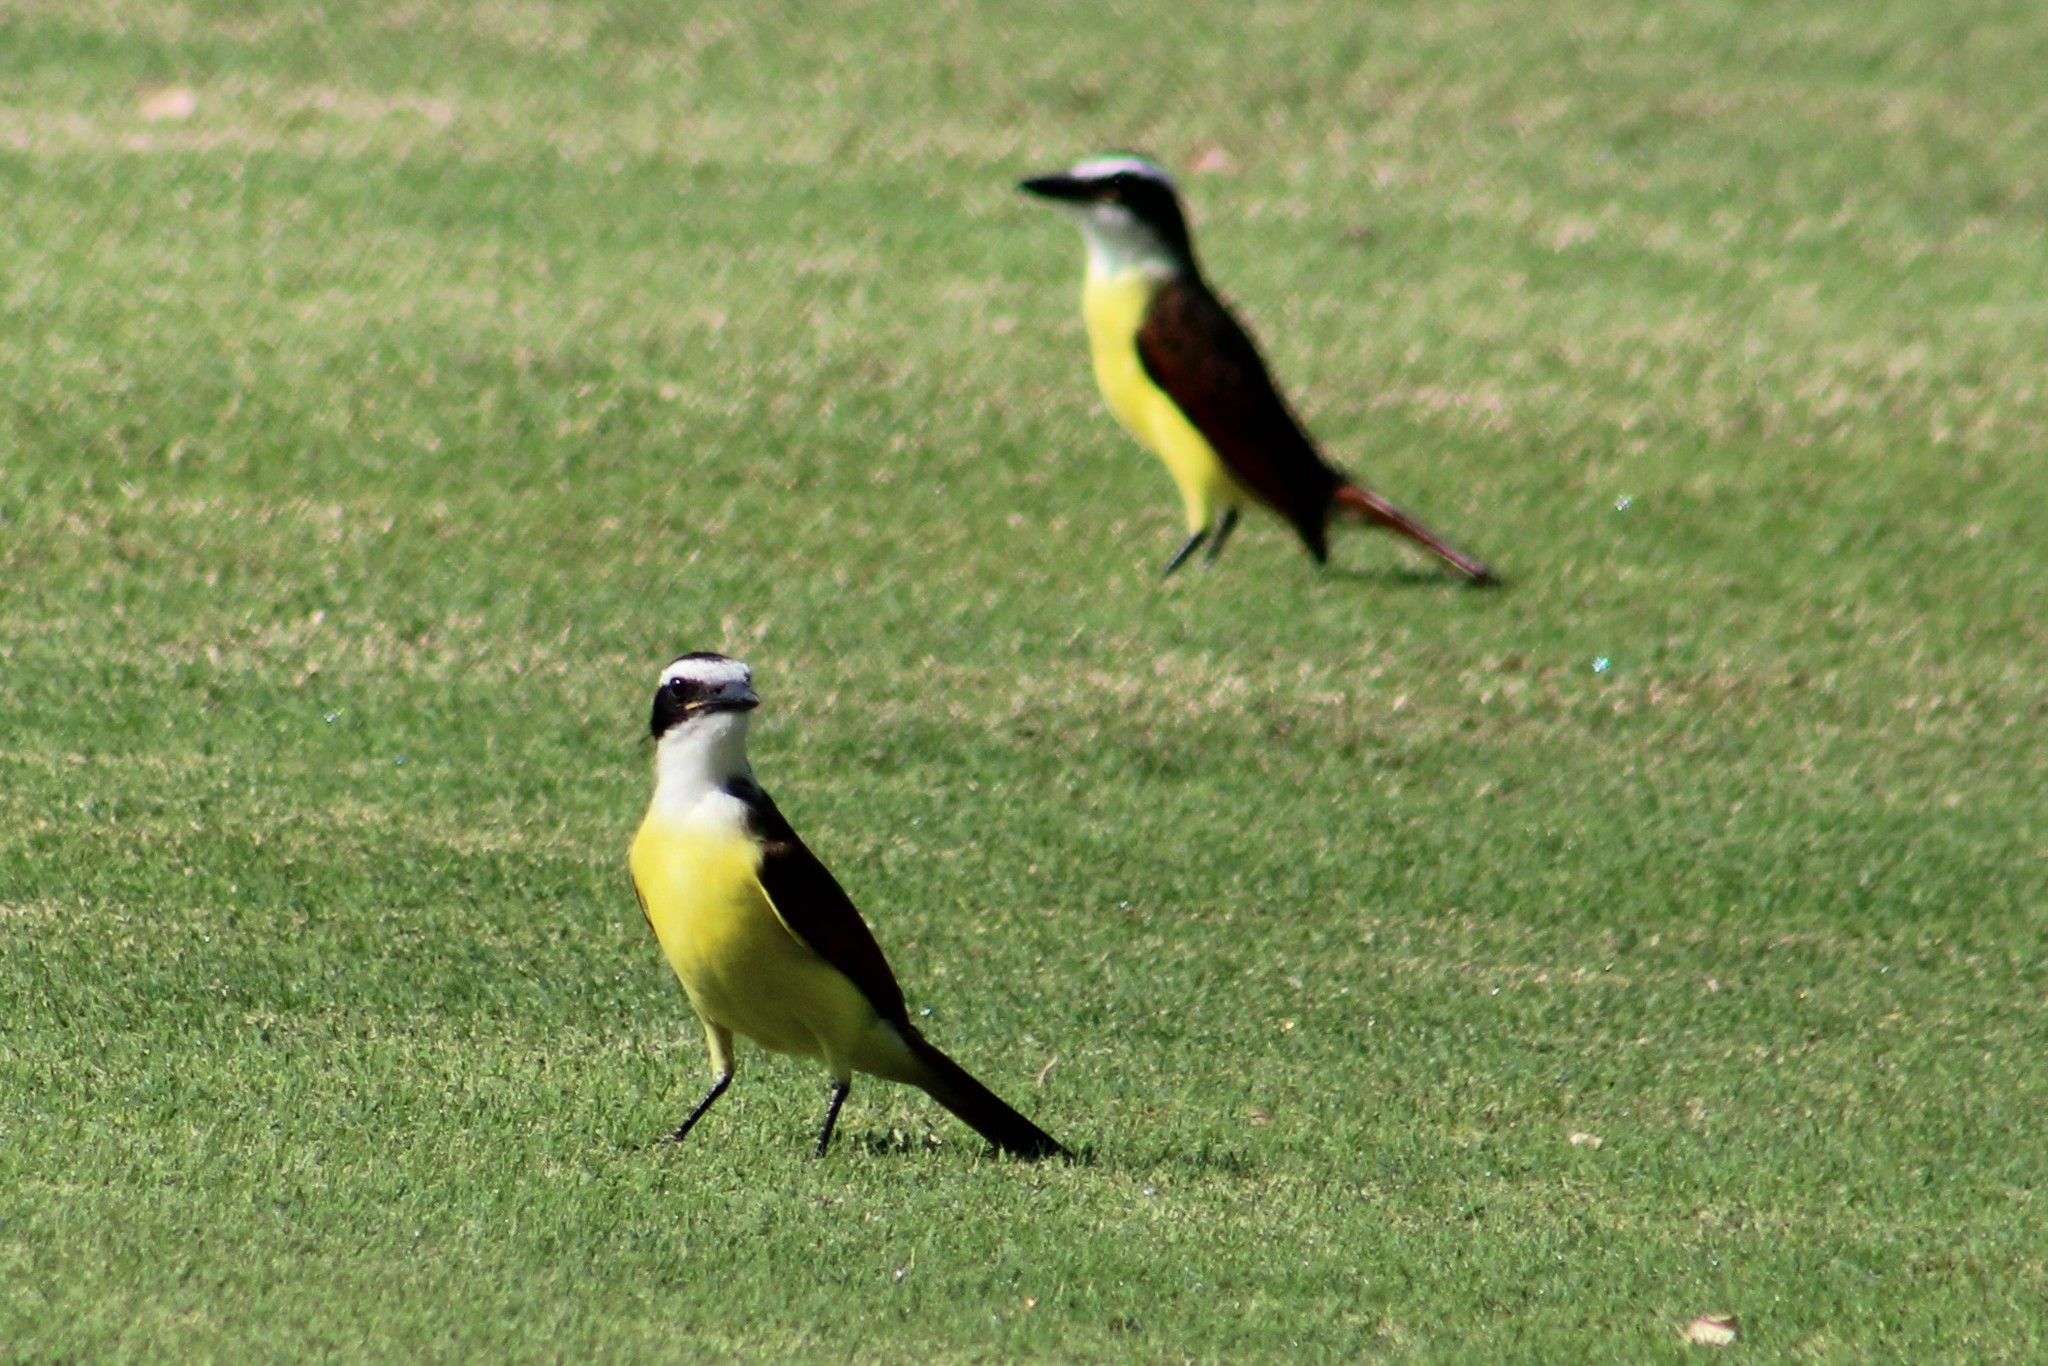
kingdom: Animalia
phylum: Chordata
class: Aves
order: Passeriformes
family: Tyrannidae
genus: Pitangus
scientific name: Pitangus sulphuratus
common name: Great kiskadee
